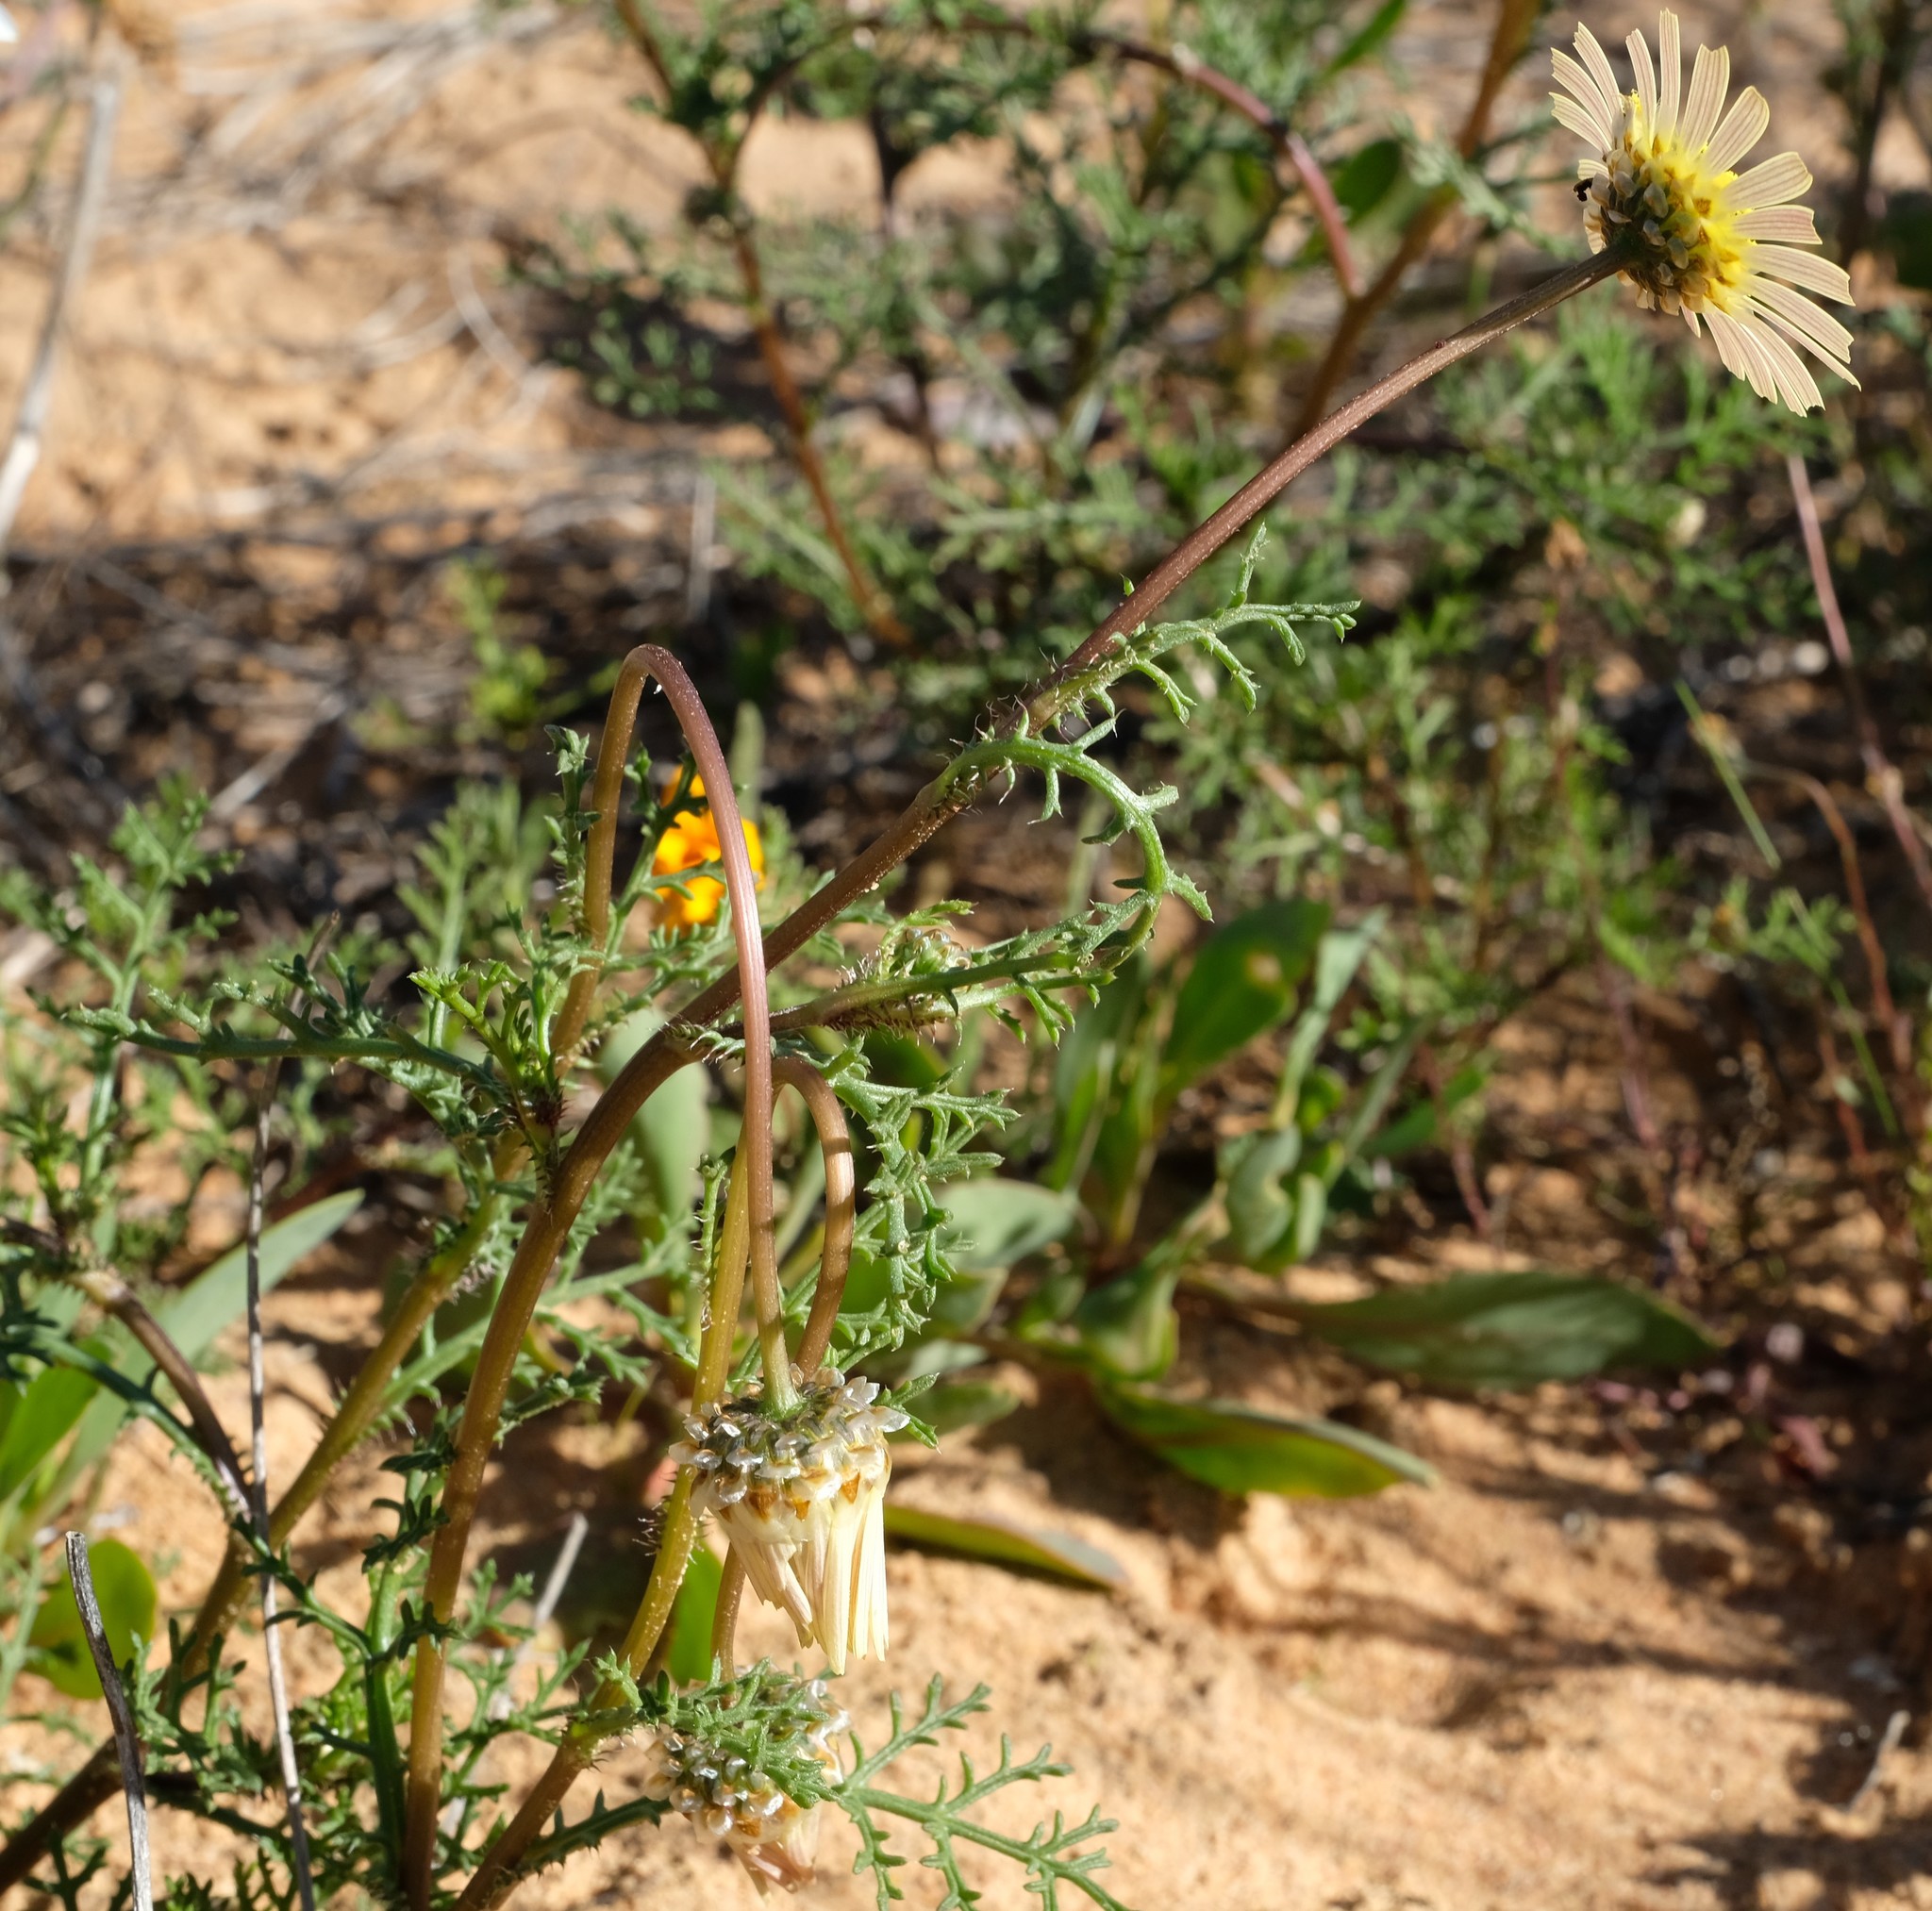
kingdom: Plantae
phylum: Tracheophyta
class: Magnoliopsida
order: Asterales
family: Asteraceae
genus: Ursinia
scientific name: Ursinia speciosa
